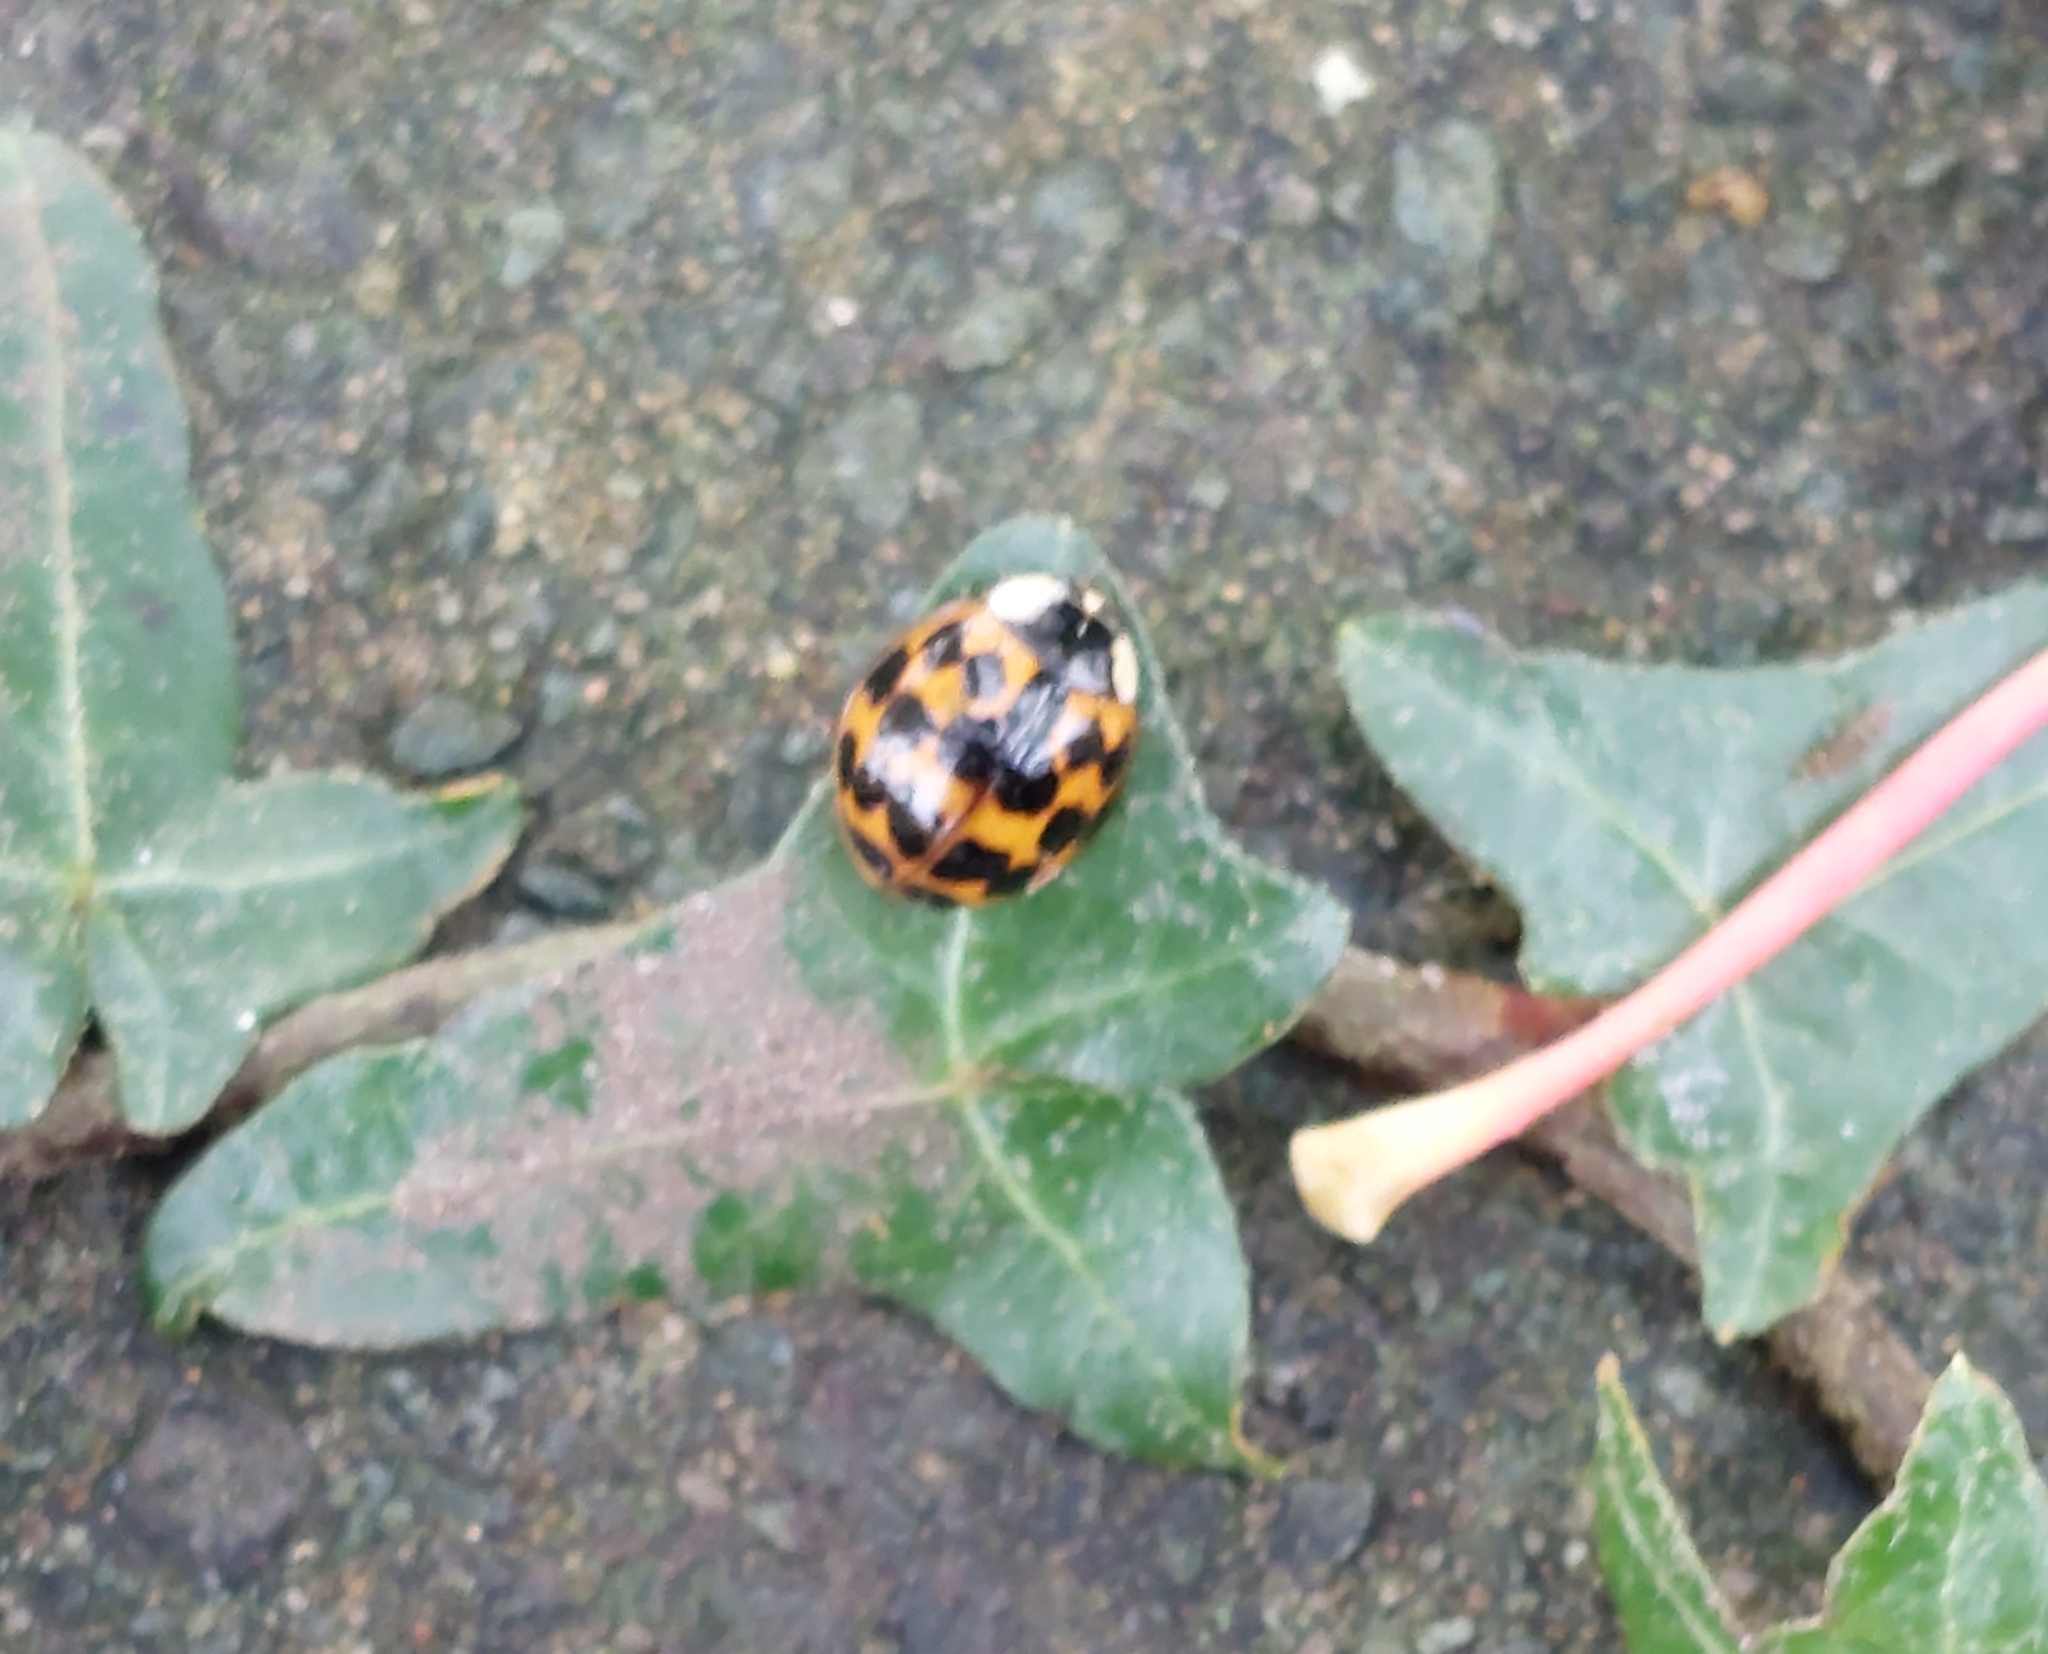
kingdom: Animalia
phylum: Arthropoda
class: Insecta
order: Coleoptera
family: Coccinellidae
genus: Harmonia
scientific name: Harmonia axyridis
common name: Harlequin ladybird
